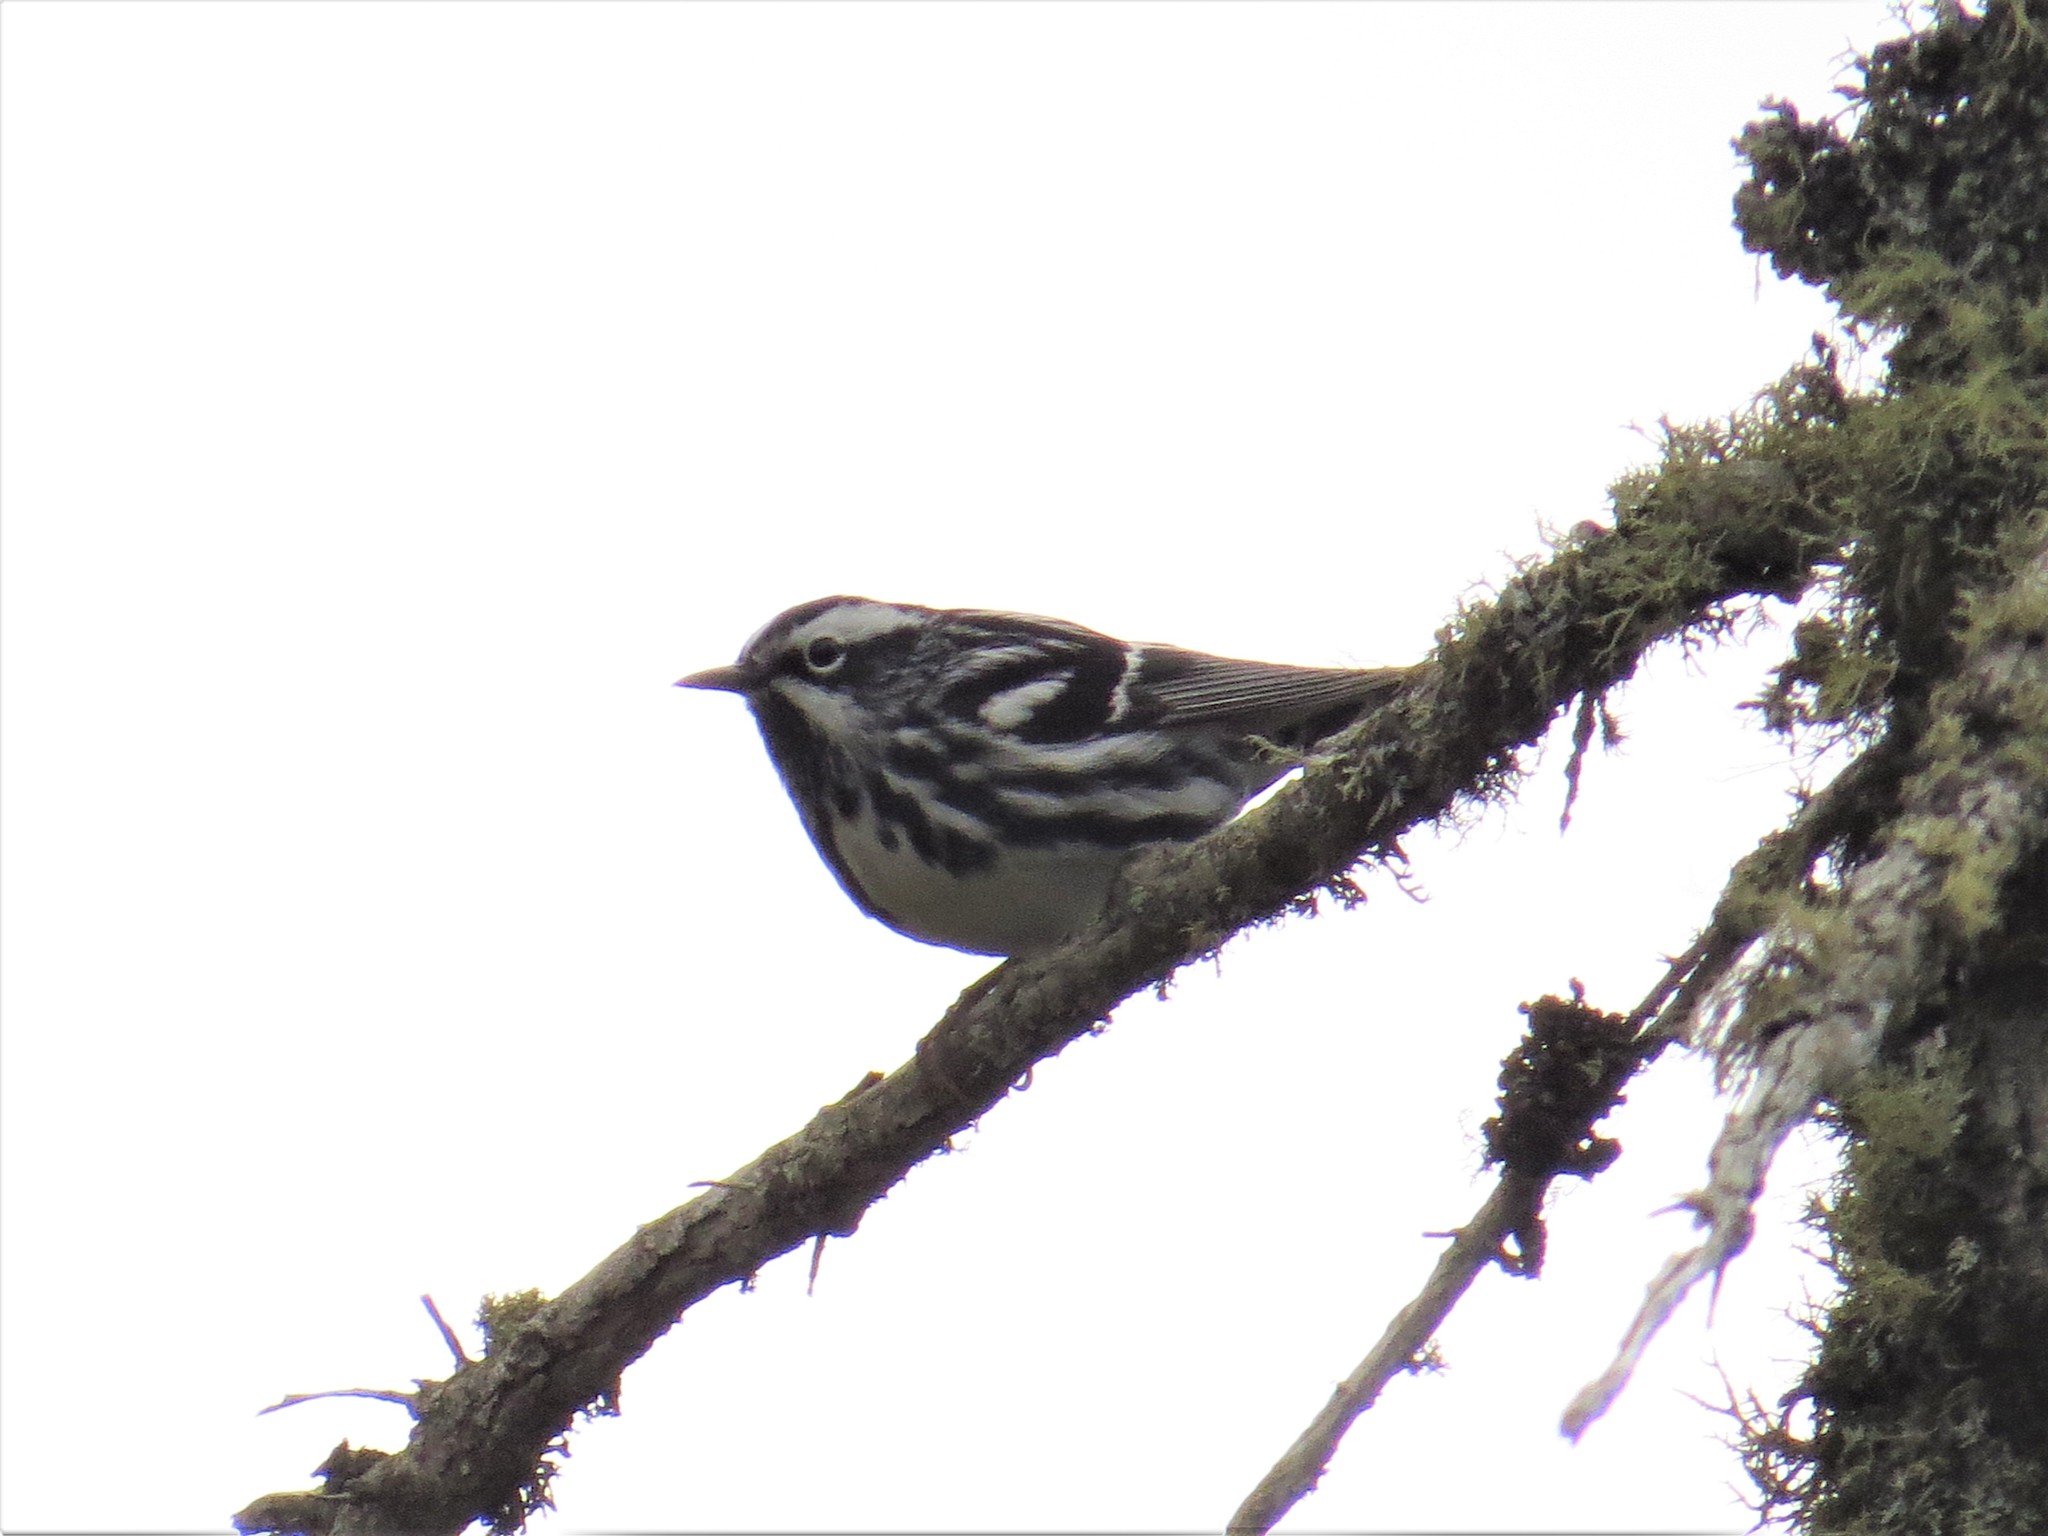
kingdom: Animalia
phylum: Chordata
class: Aves
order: Passeriformes
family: Parulidae
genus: Mniotilta
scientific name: Mniotilta varia
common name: Black-and-white warbler
